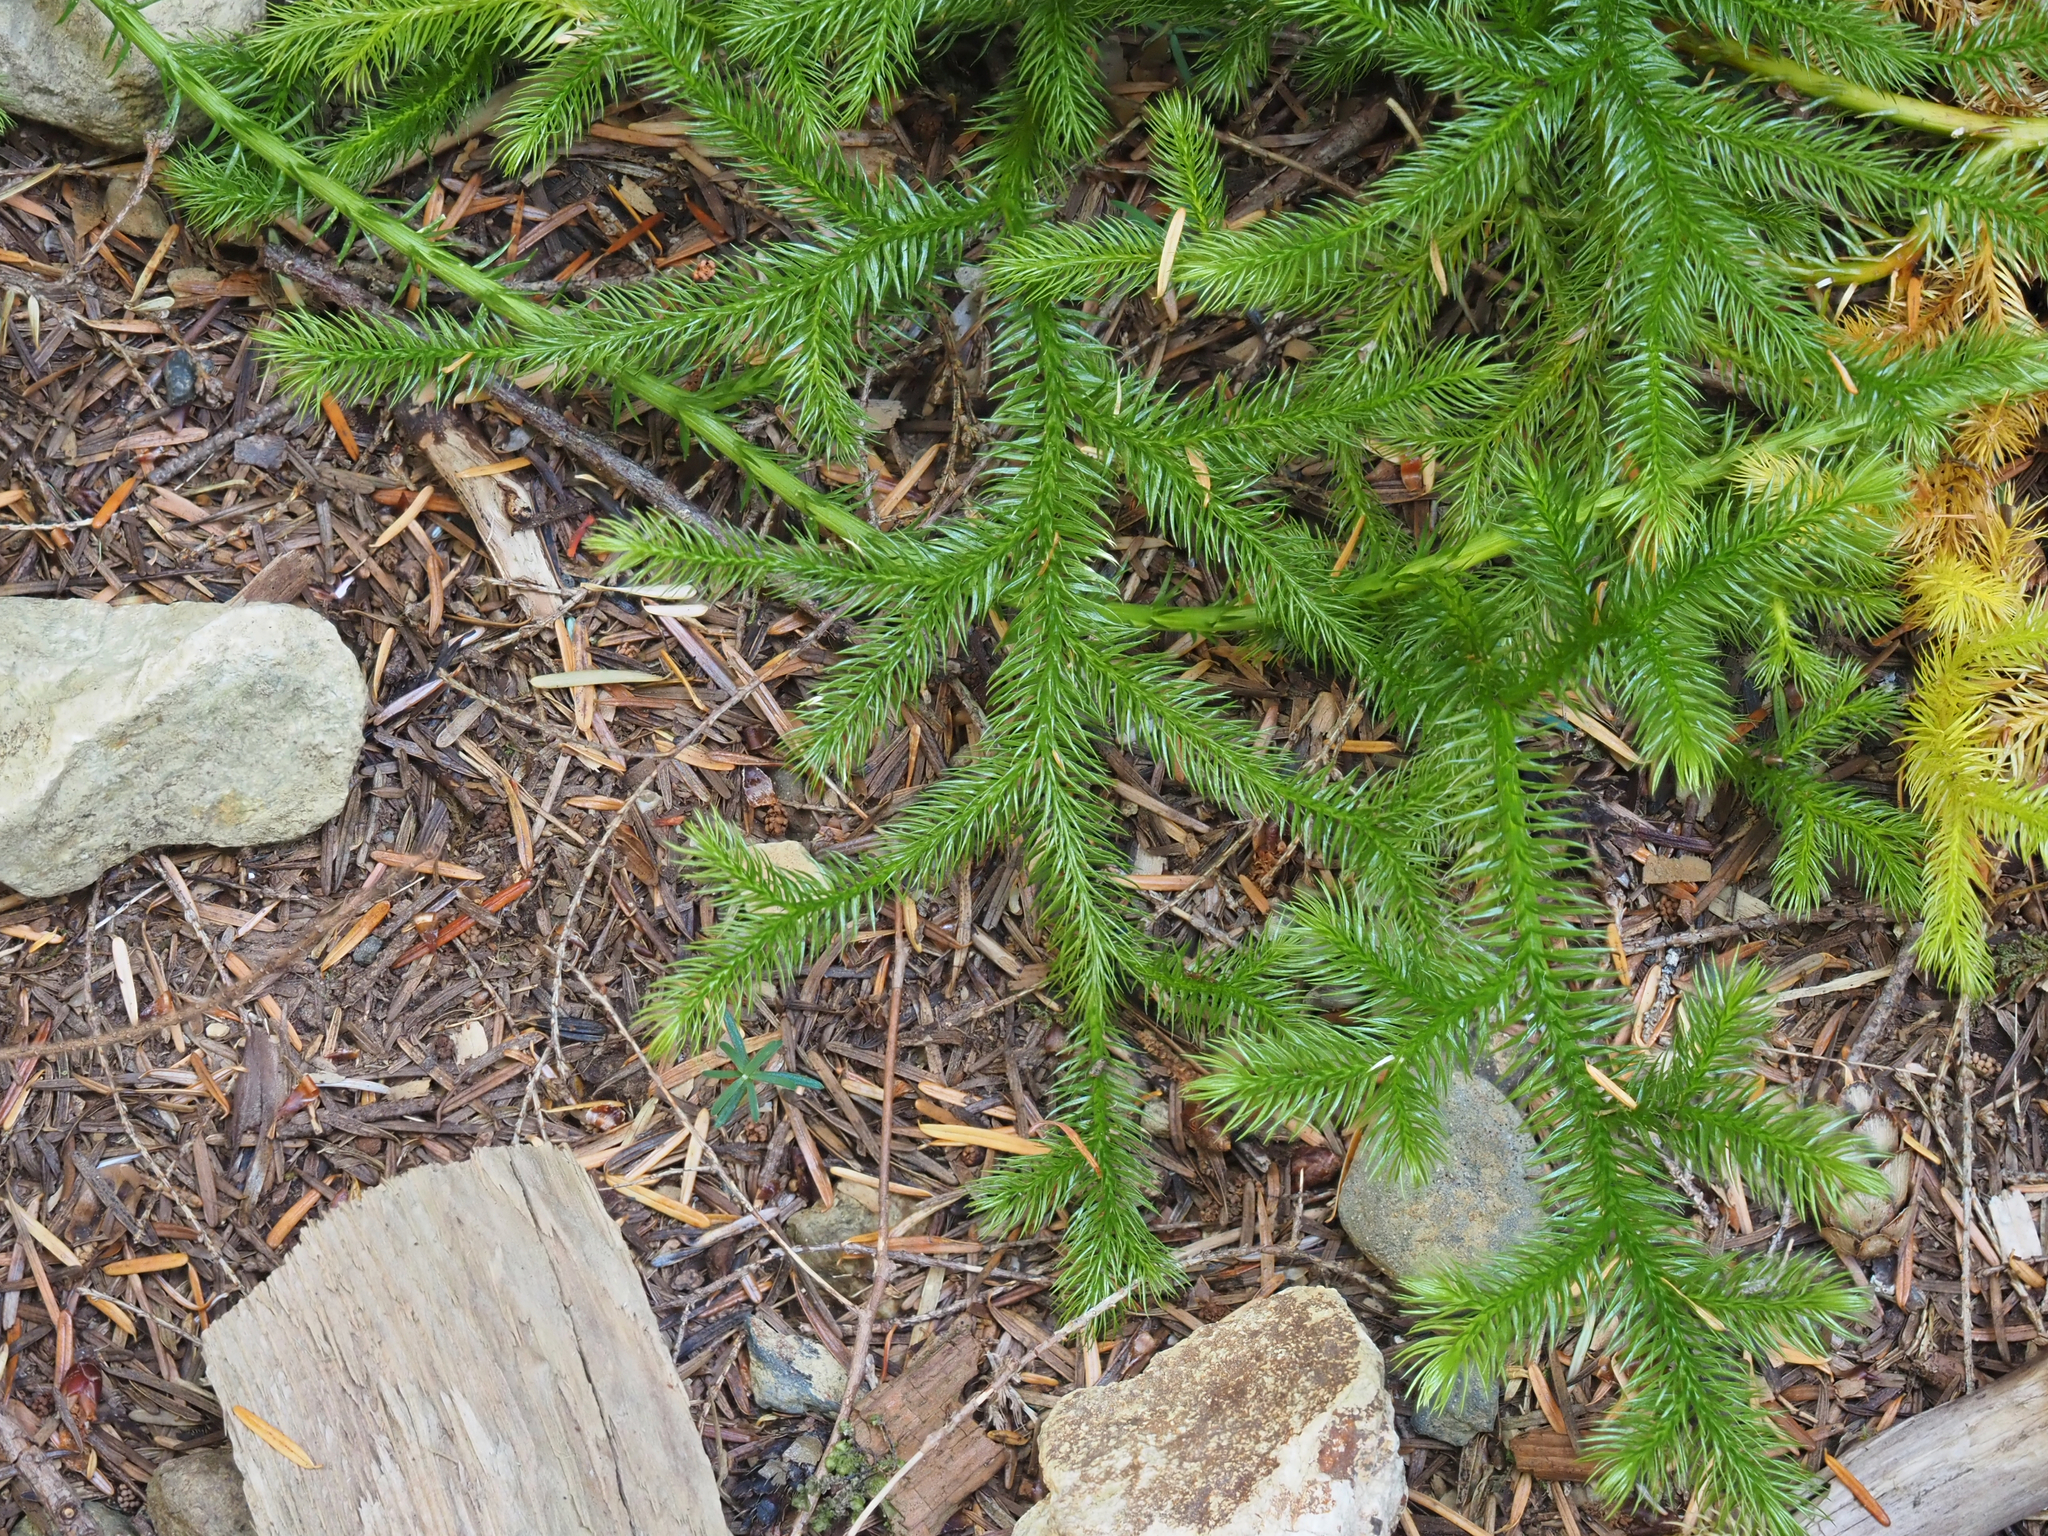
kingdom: Plantae
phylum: Tracheophyta
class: Lycopodiopsida
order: Lycopodiales
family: Lycopodiaceae
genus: Lycopodium
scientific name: Lycopodium clavatum
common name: Stag's-horn clubmoss
